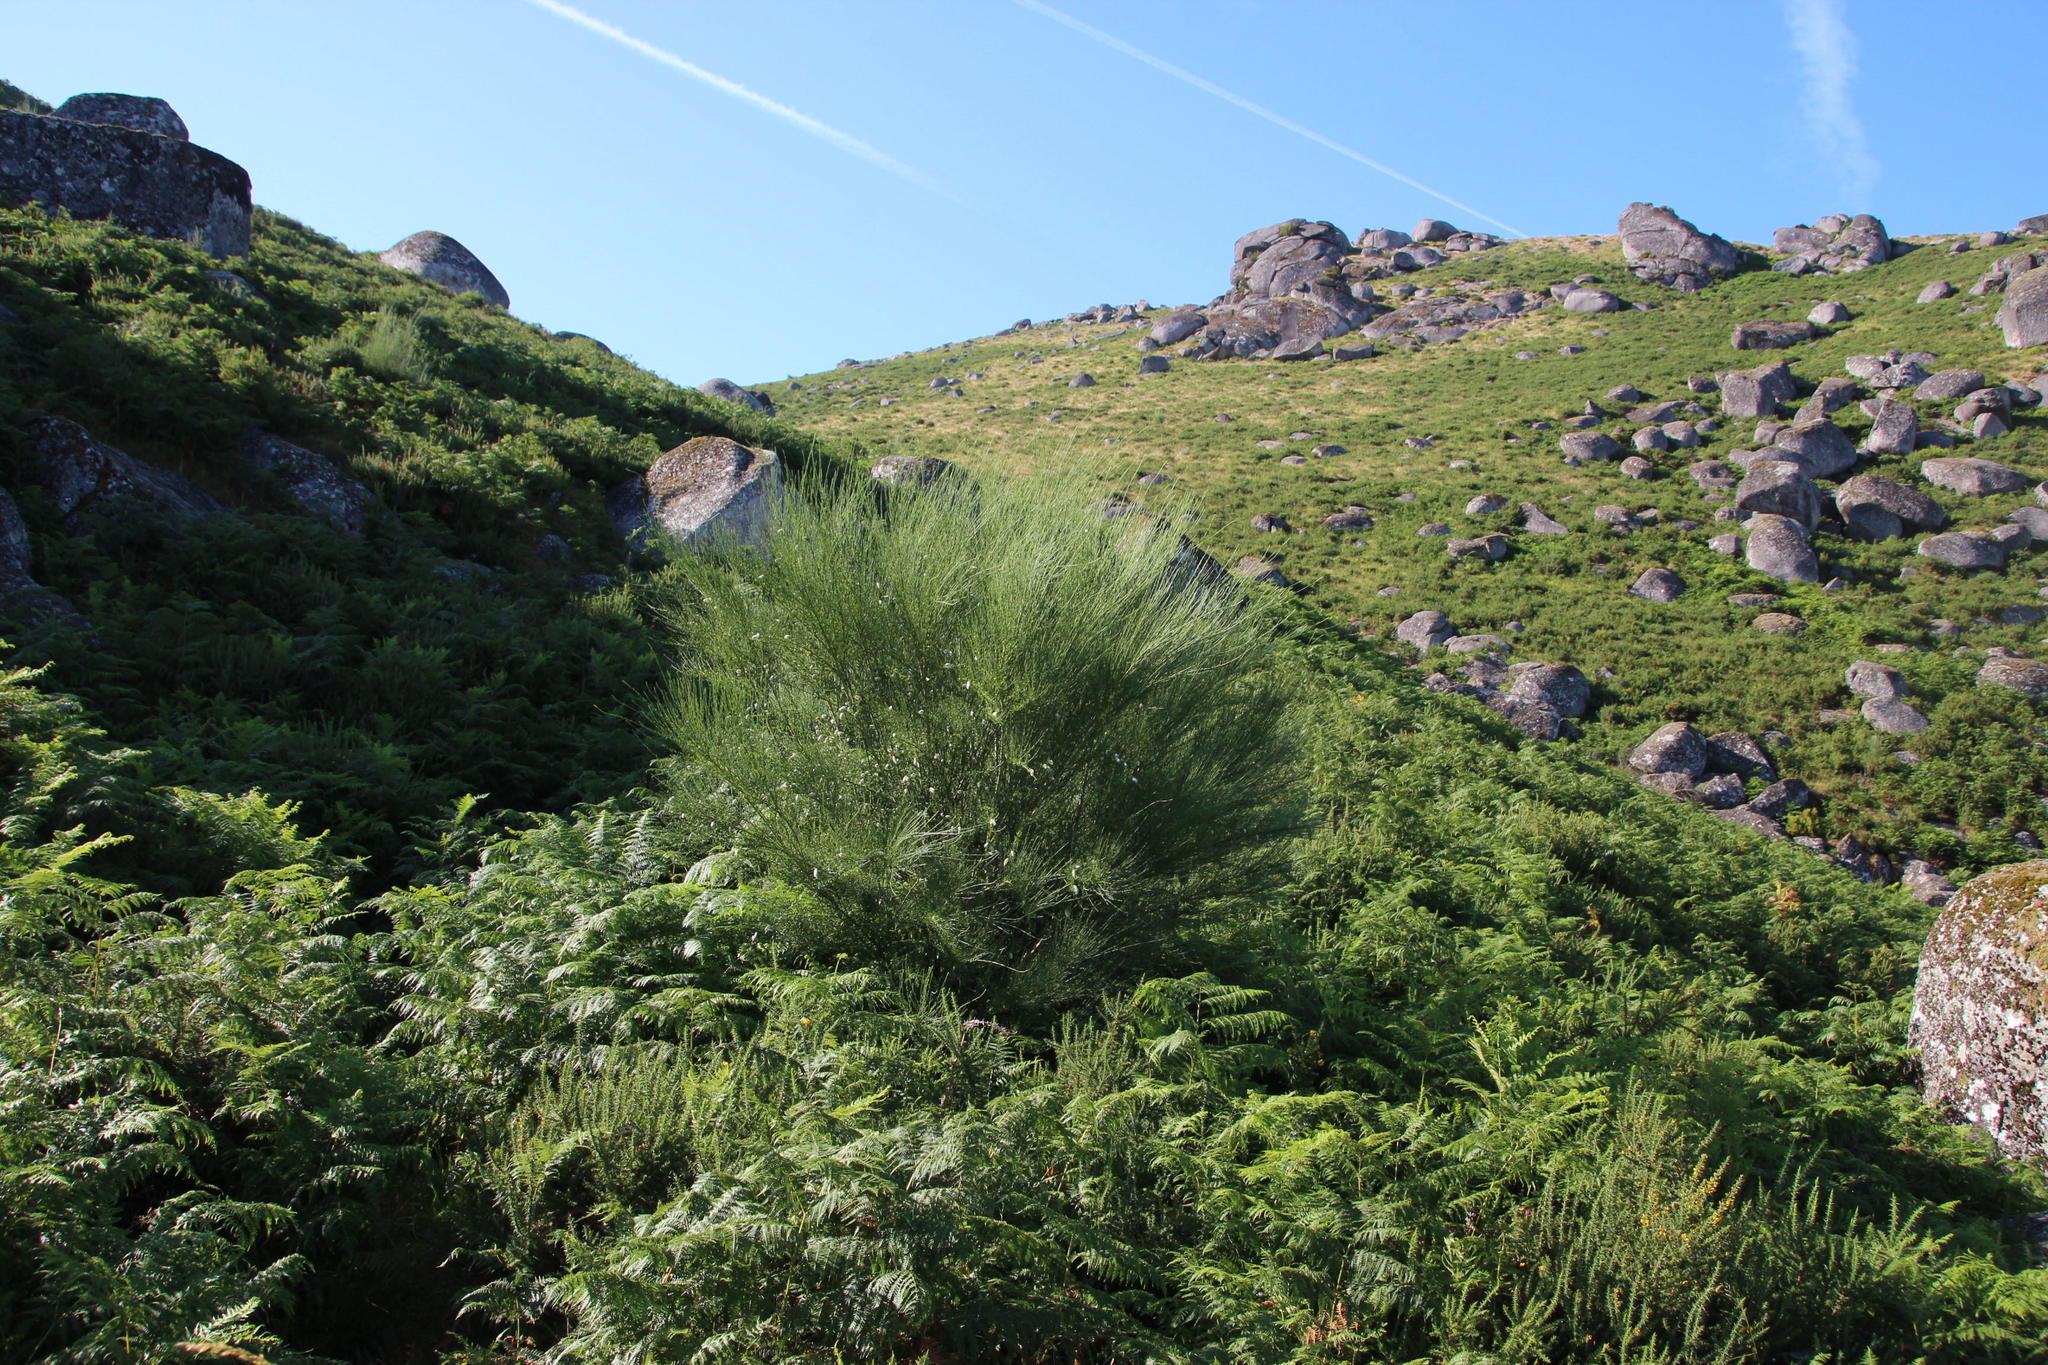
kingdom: Plantae
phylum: Tracheophyta
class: Magnoliopsida
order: Fabales
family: Fabaceae
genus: Cytisus
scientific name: Cytisus striatus
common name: Hairy-fruited broom
